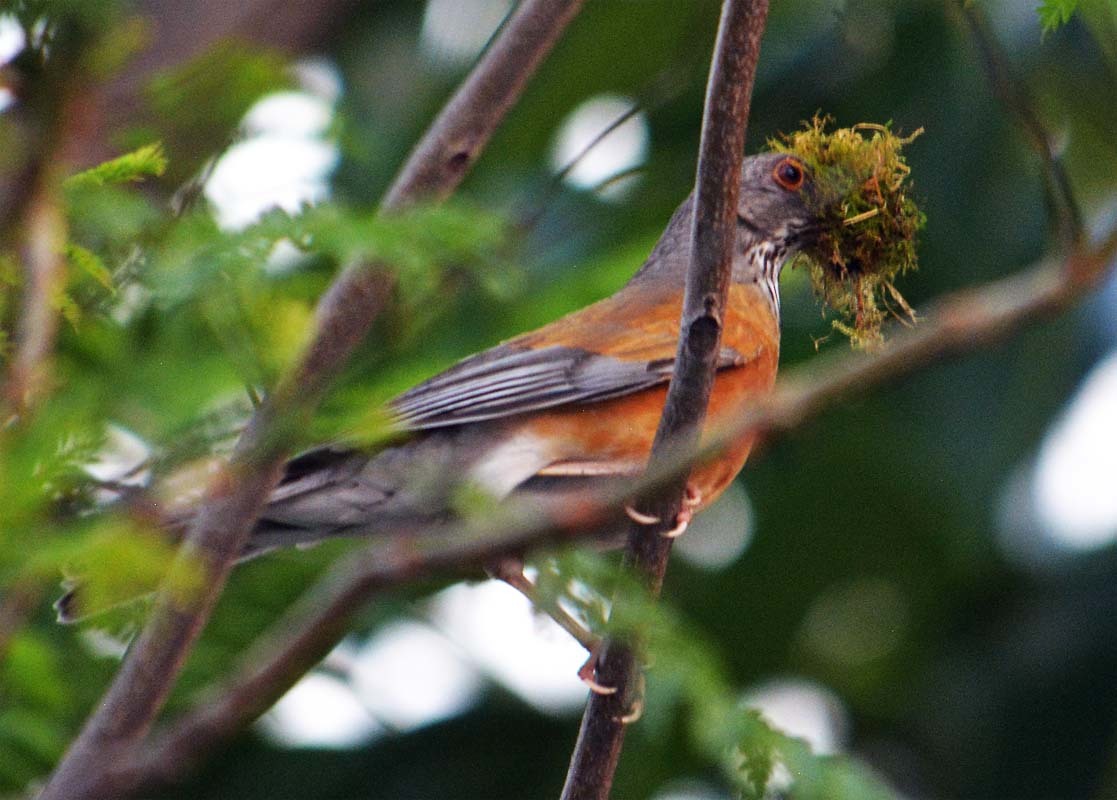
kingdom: Animalia
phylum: Chordata
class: Aves
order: Passeriformes
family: Turdidae
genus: Turdus
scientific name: Turdus rufopalliatus
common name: Rufous-backed robin
